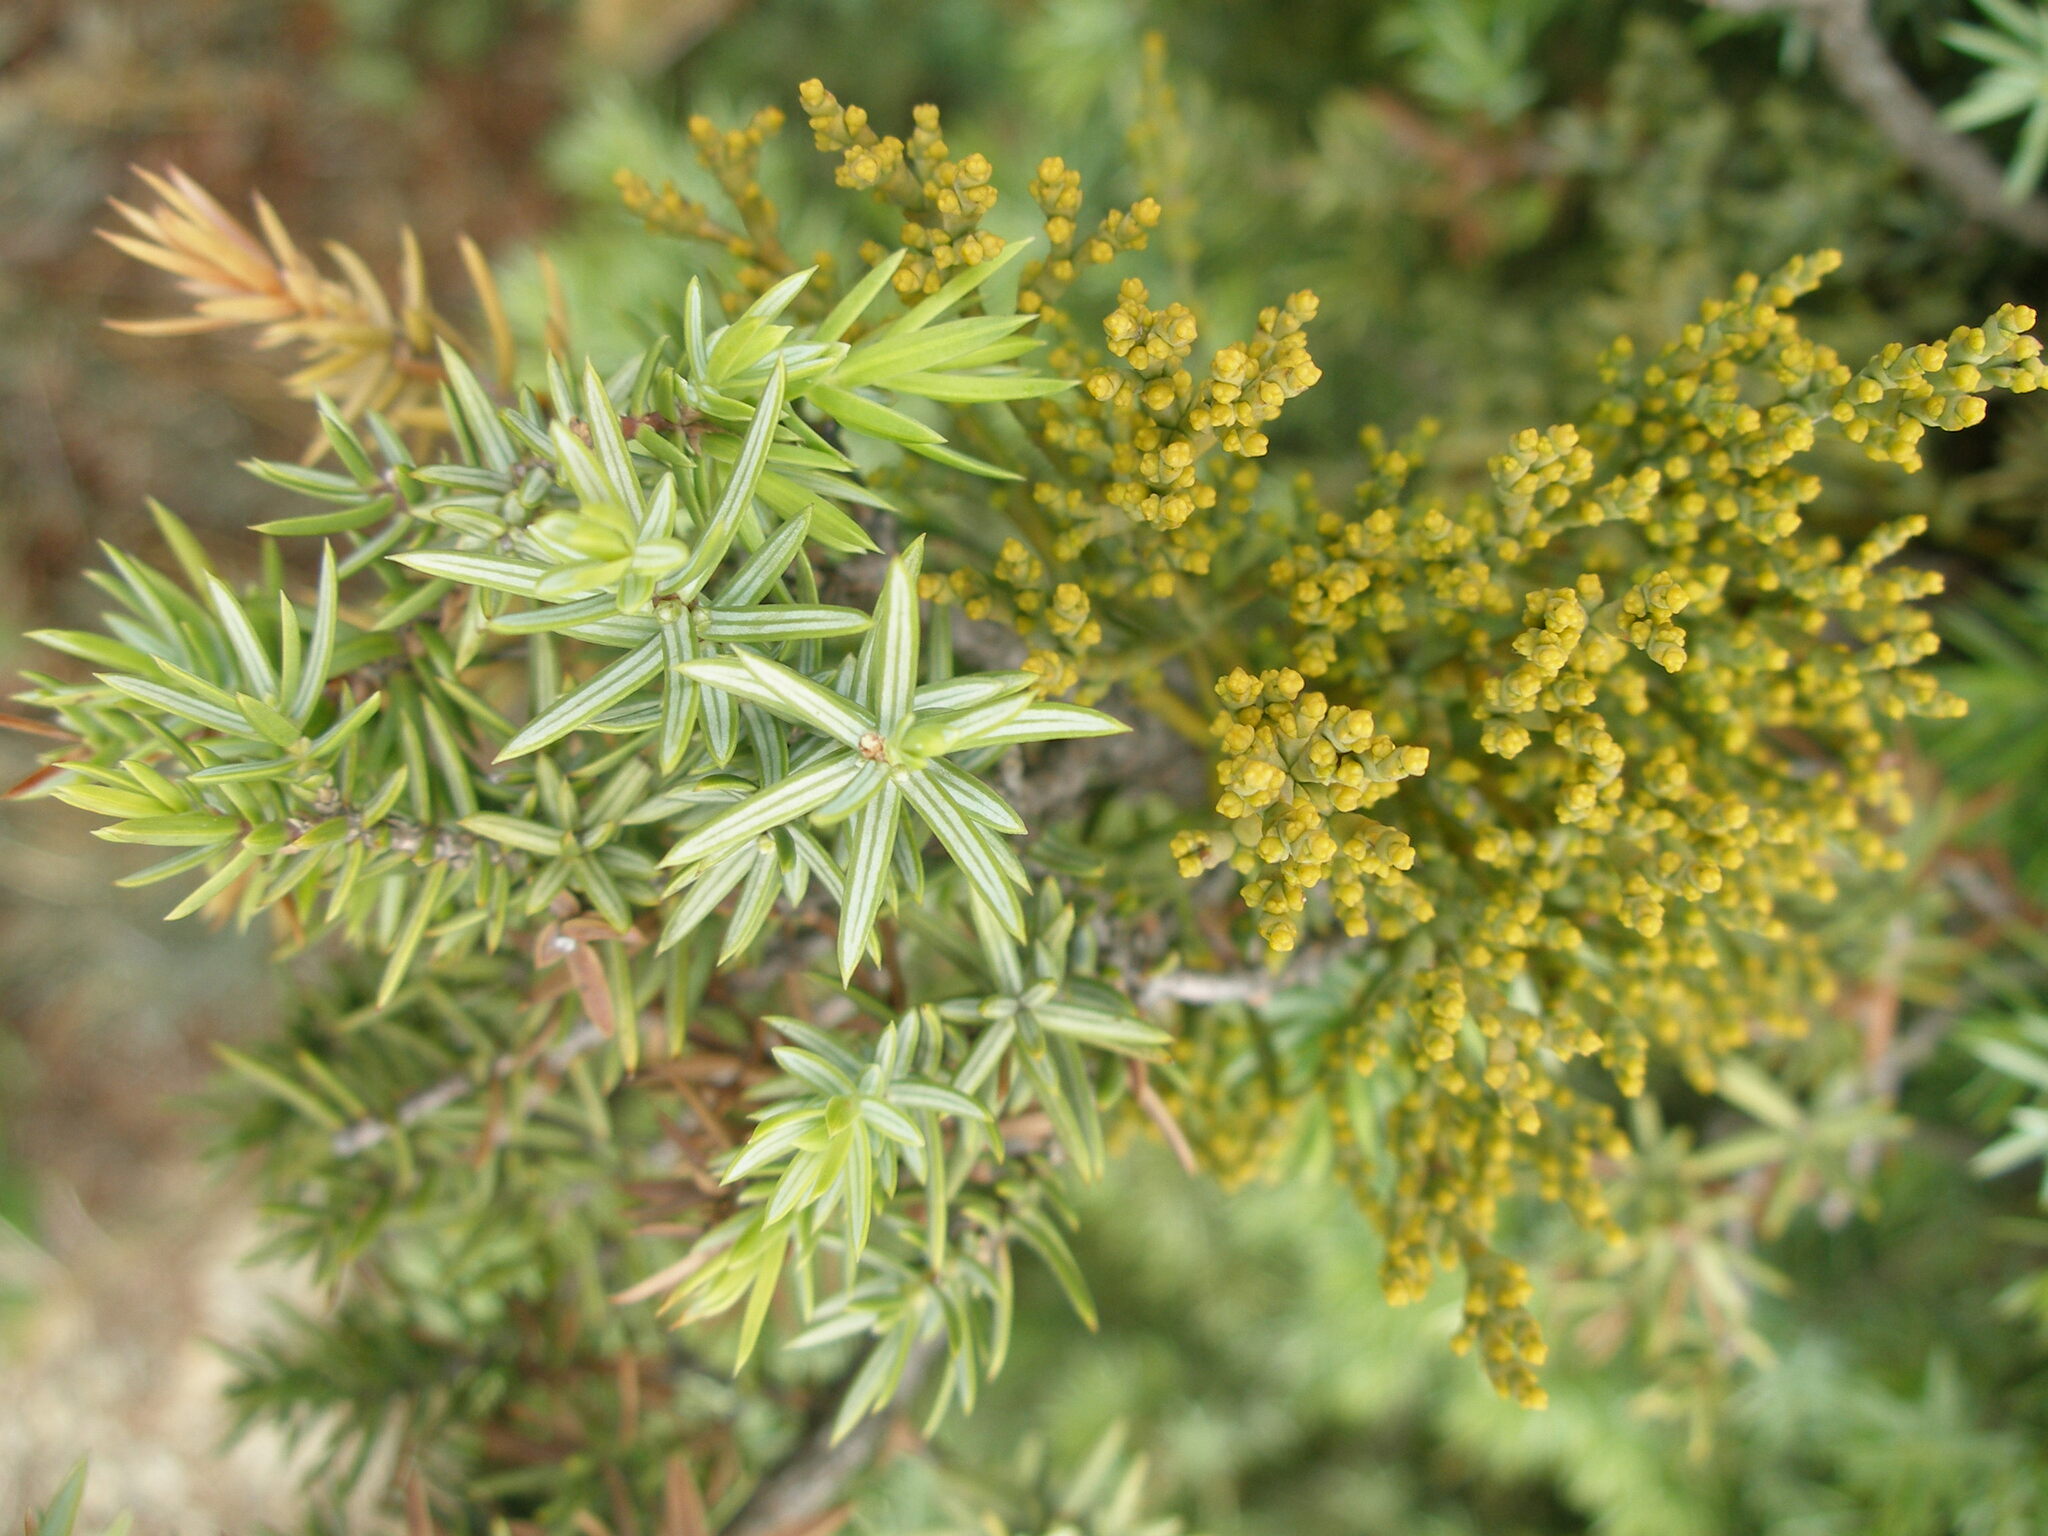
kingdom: Plantae
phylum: Tracheophyta
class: Magnoliopsida
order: Santalales
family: Viscaceae
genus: Arceuthobium
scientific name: Arceuthobium oxycedri
